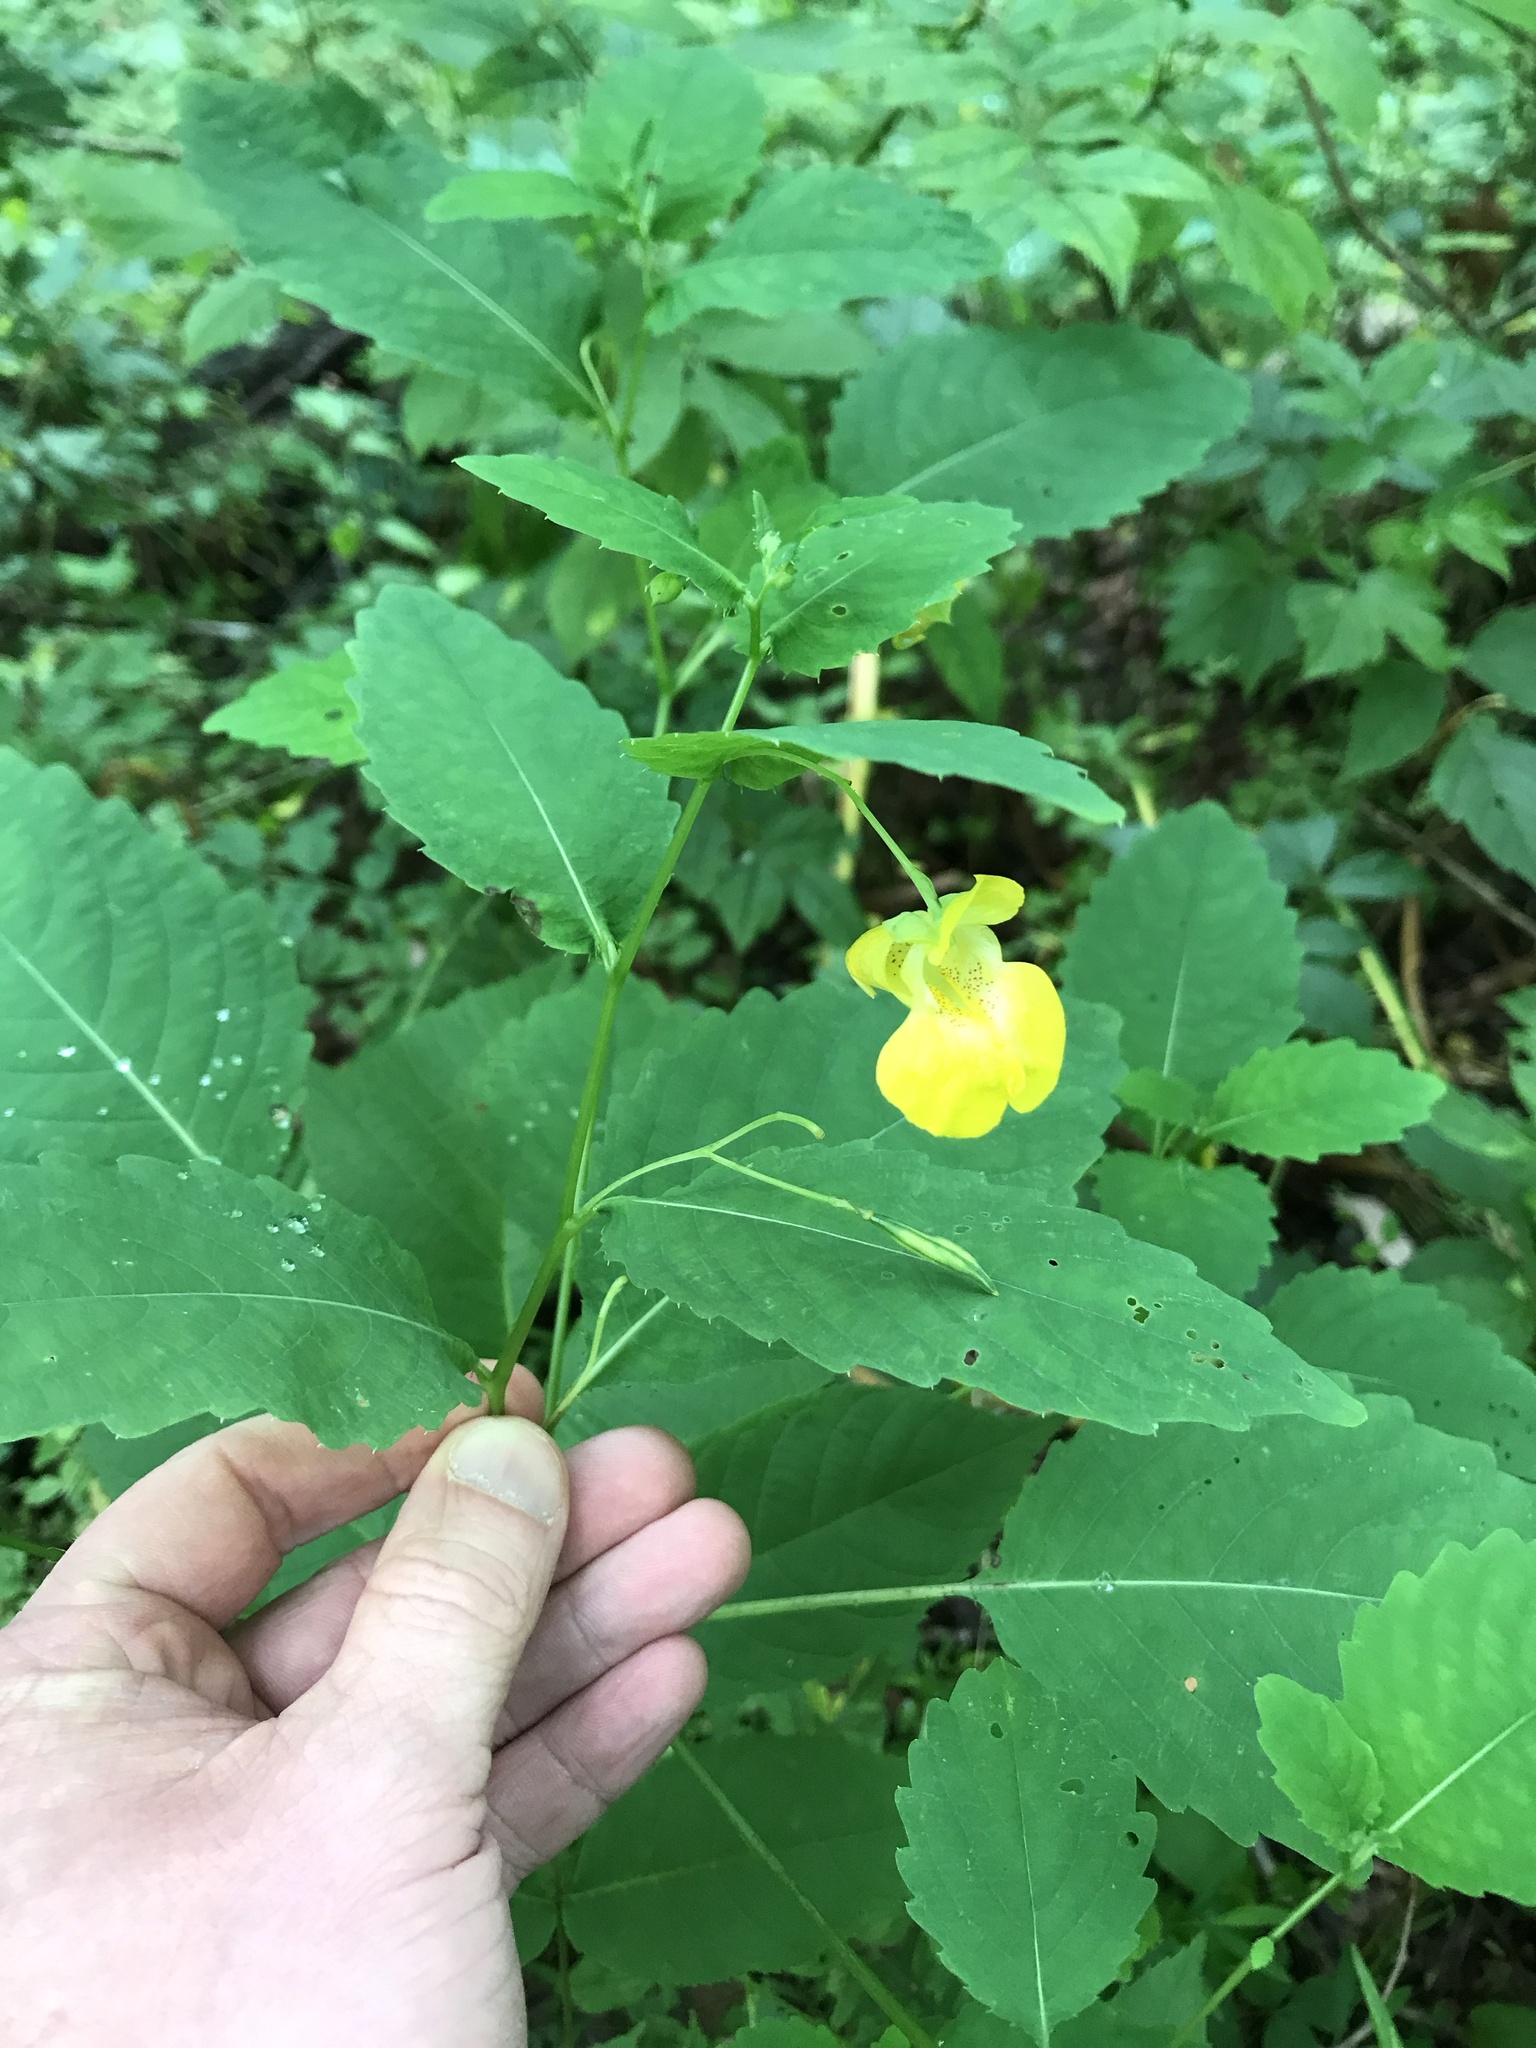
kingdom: Plantae
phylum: Tracheophyta
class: Magnoliopsida
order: Ericales
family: Balsaminaceae
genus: Impatiens
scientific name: Impatiens pallida
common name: Pale snapweed
